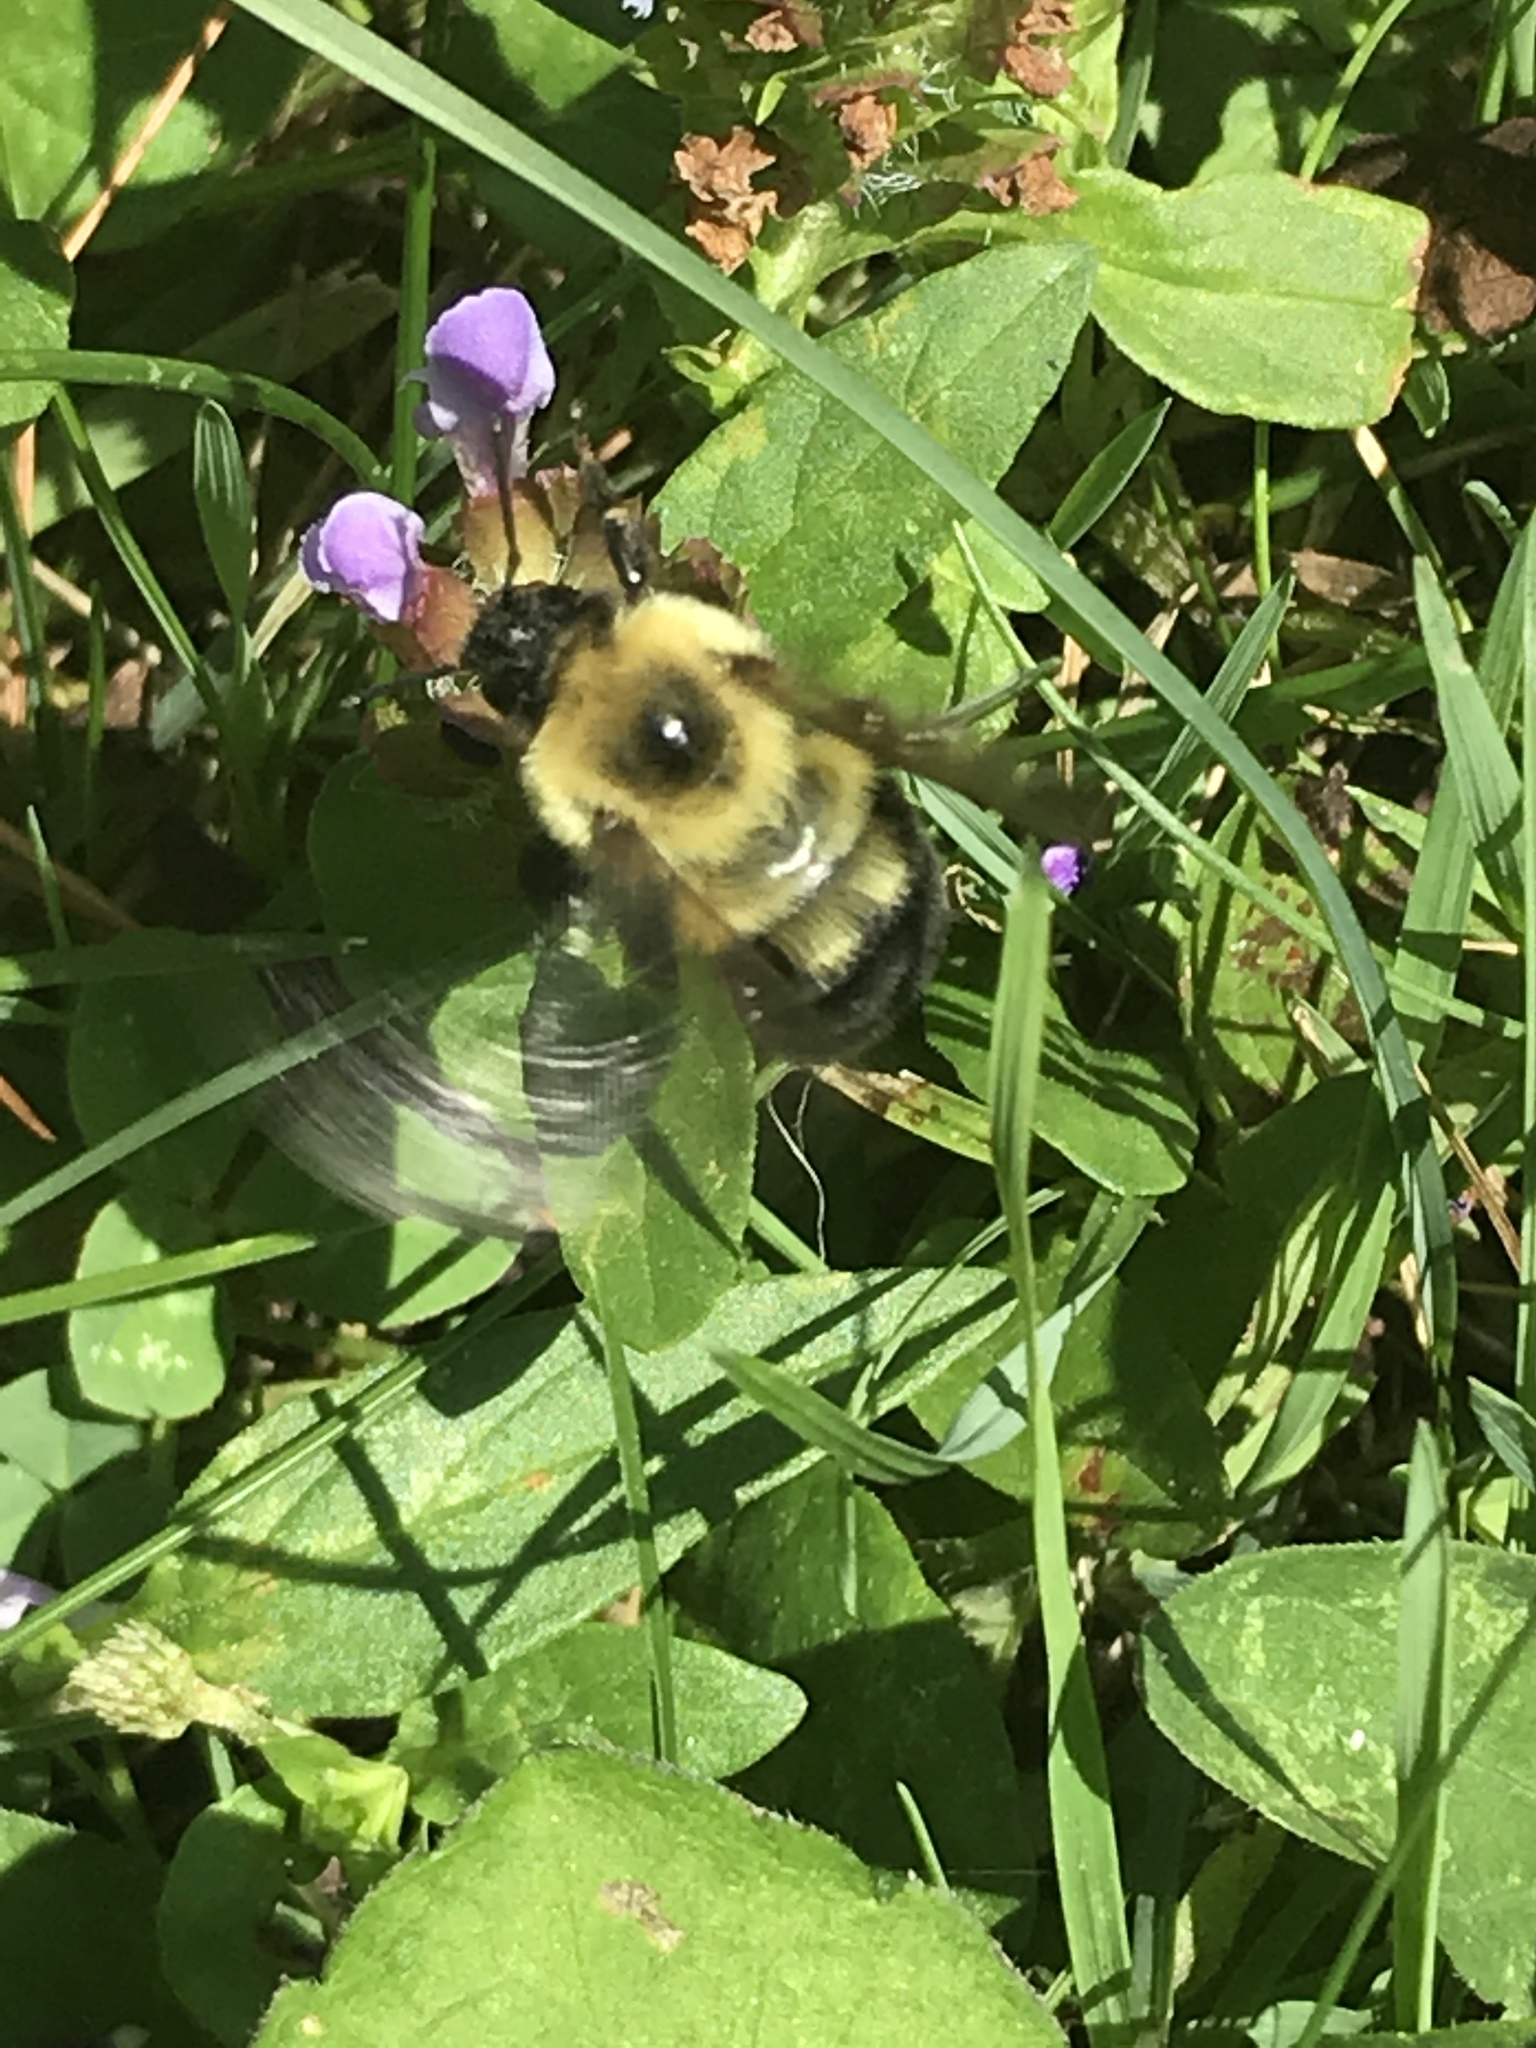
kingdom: Animalia
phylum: Arthropoda
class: Insecta
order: Hymenoptera
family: Apidae
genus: Bombus
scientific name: Bombus bimaculatus
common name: Two-spotted bumble bee
